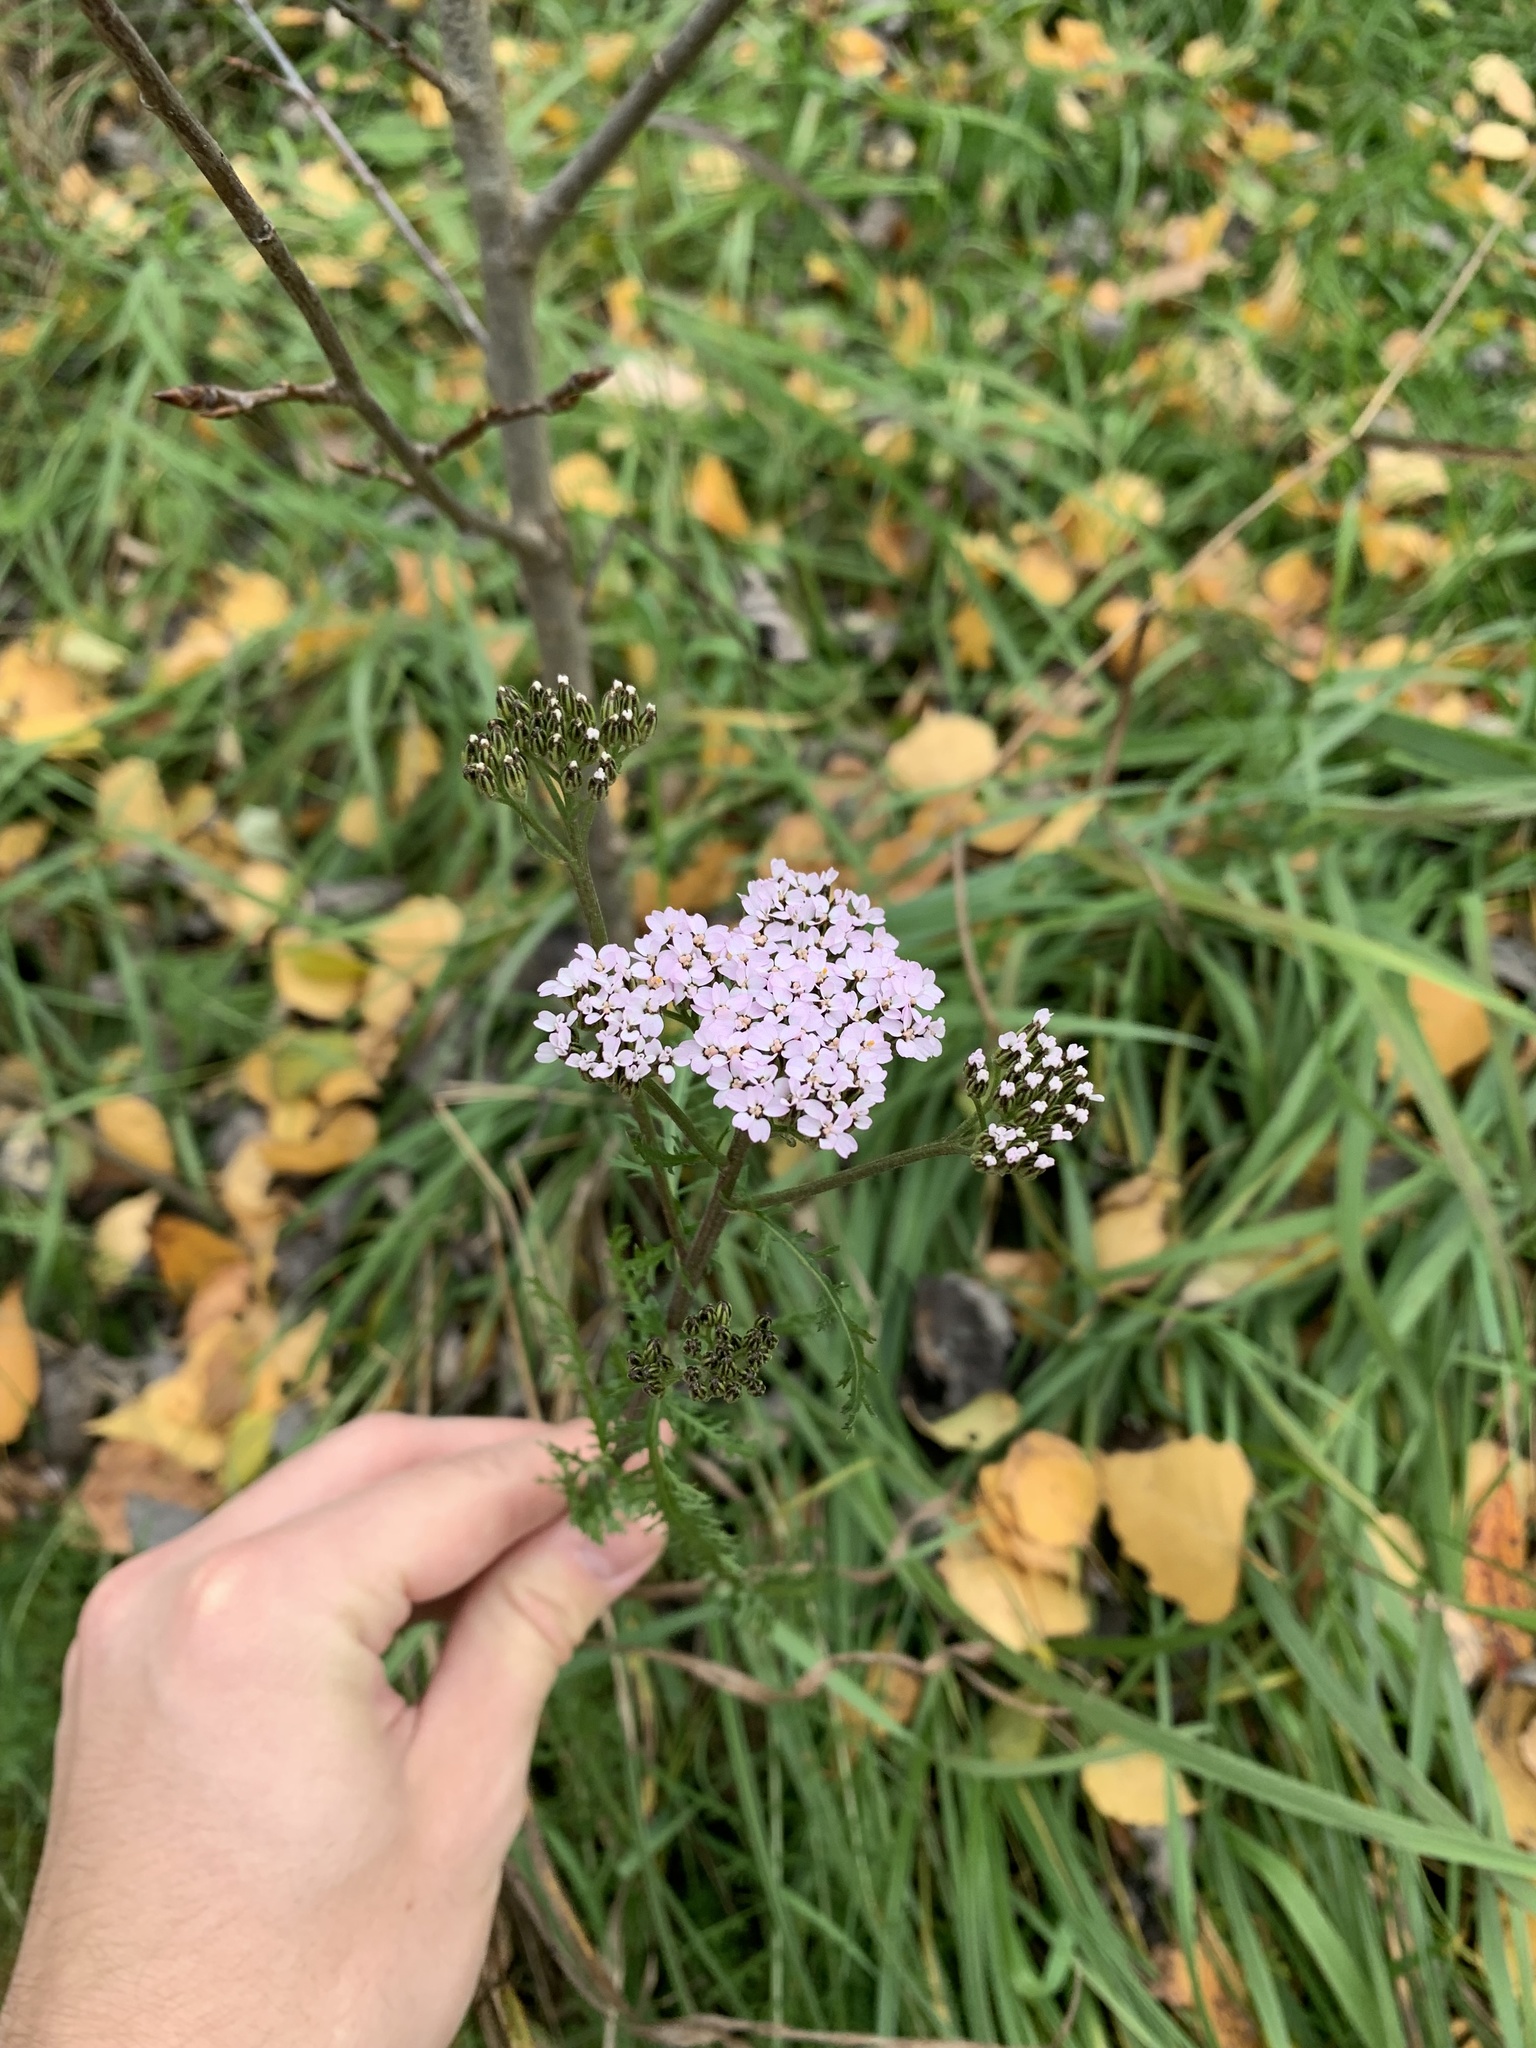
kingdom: Plantae
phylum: Tracheophyta
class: Magnoliopsida
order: Asterales
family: Asteraceae
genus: Achillea
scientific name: Achillea millefolium
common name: Yarrow
